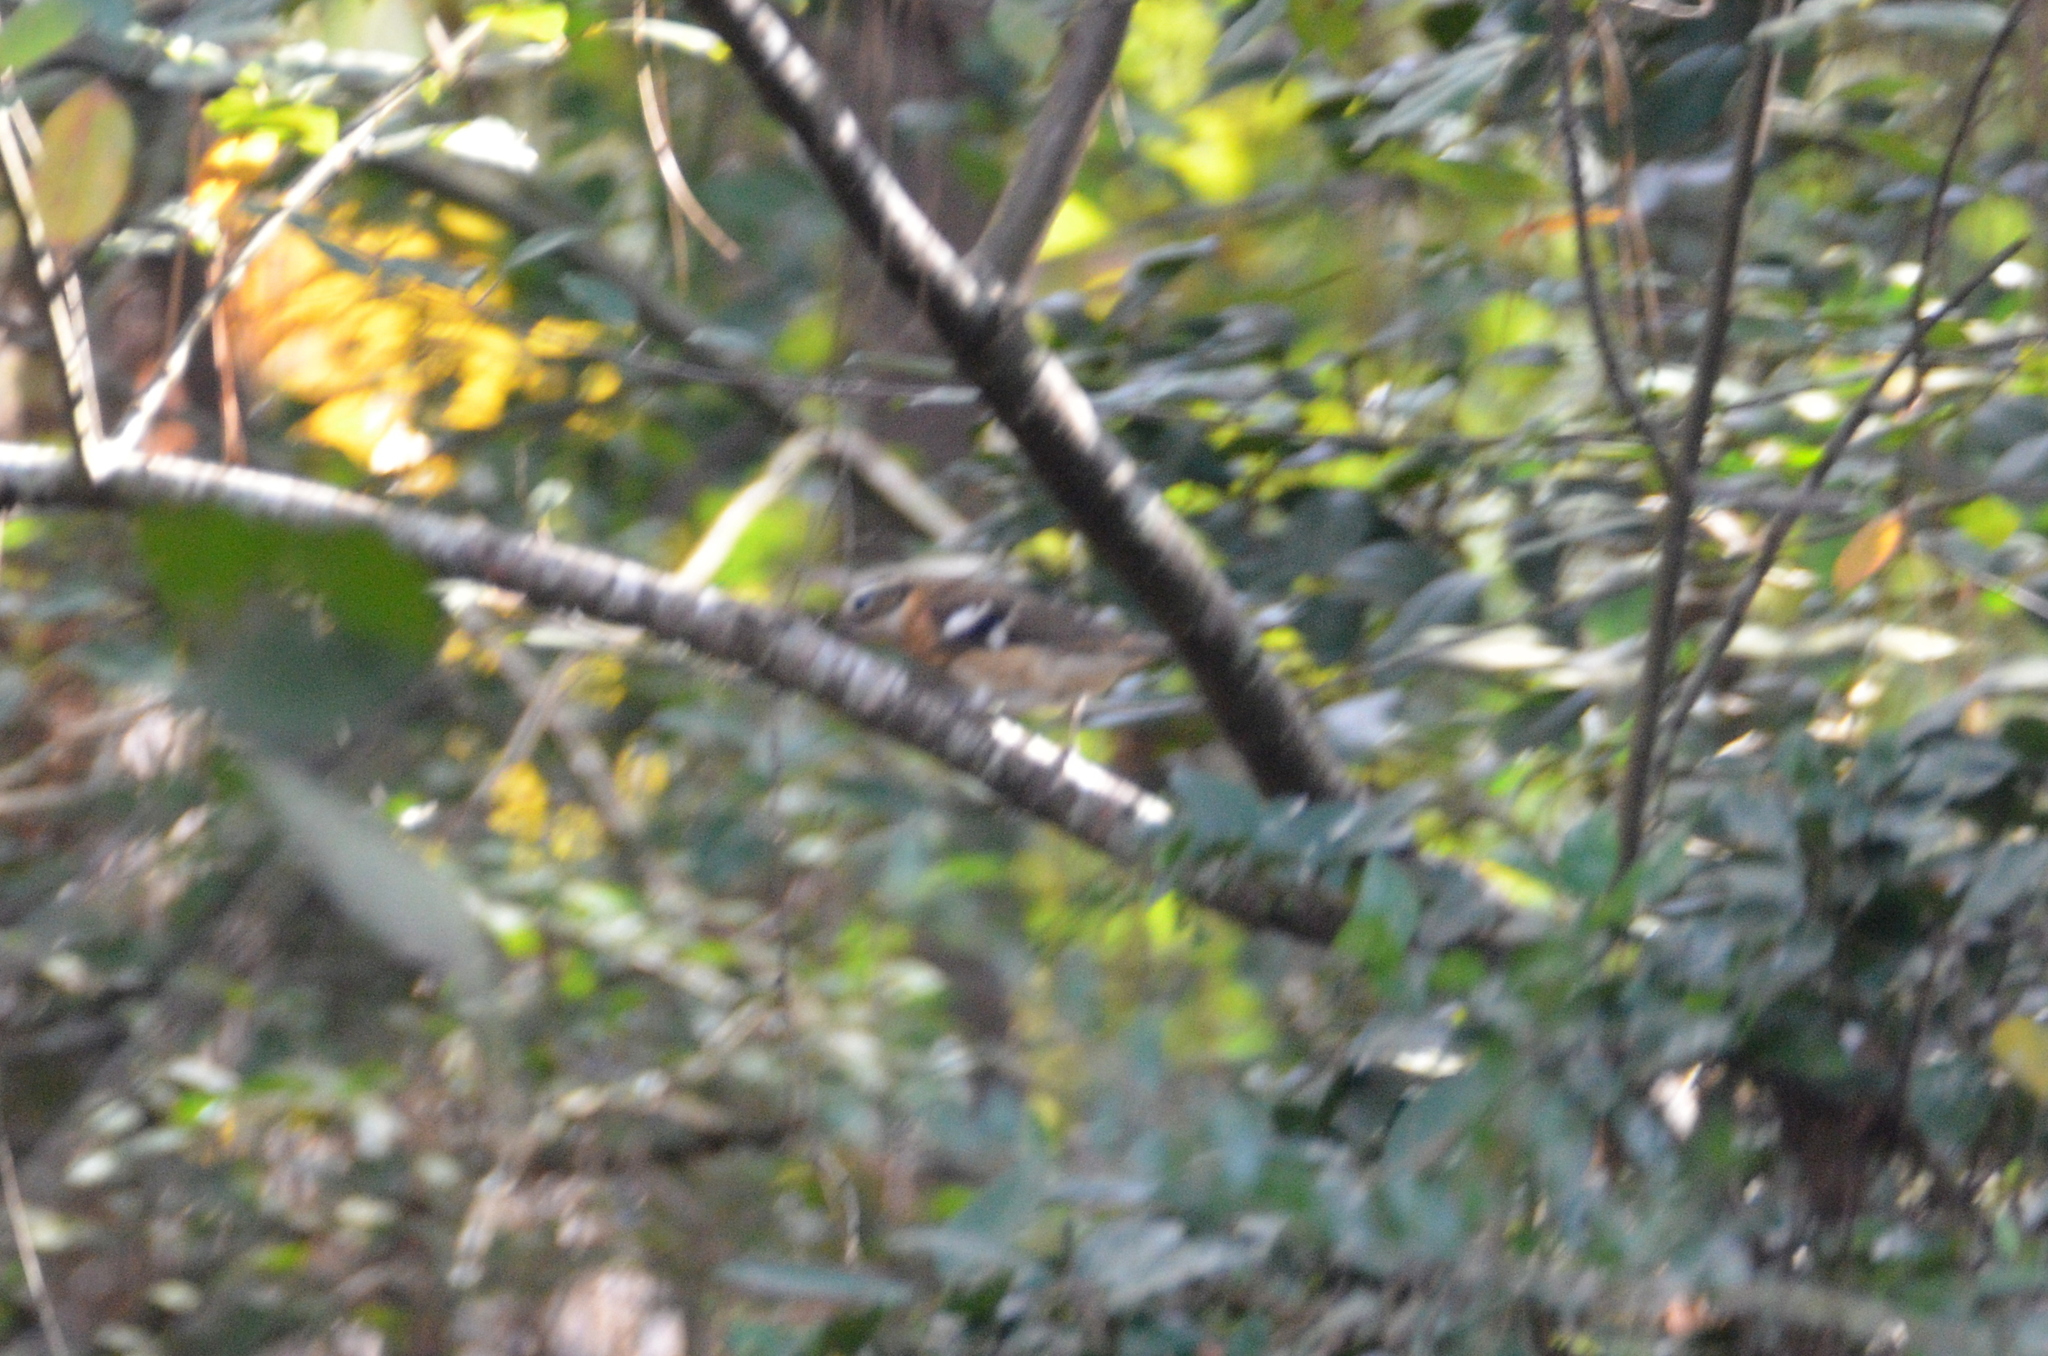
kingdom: Animalia
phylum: Chordata
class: Aves
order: Passeriformes
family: Cardinalidae
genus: Pheucticus
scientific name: Pheucticus ludovicianus
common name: Rose-breasted grosbeak
